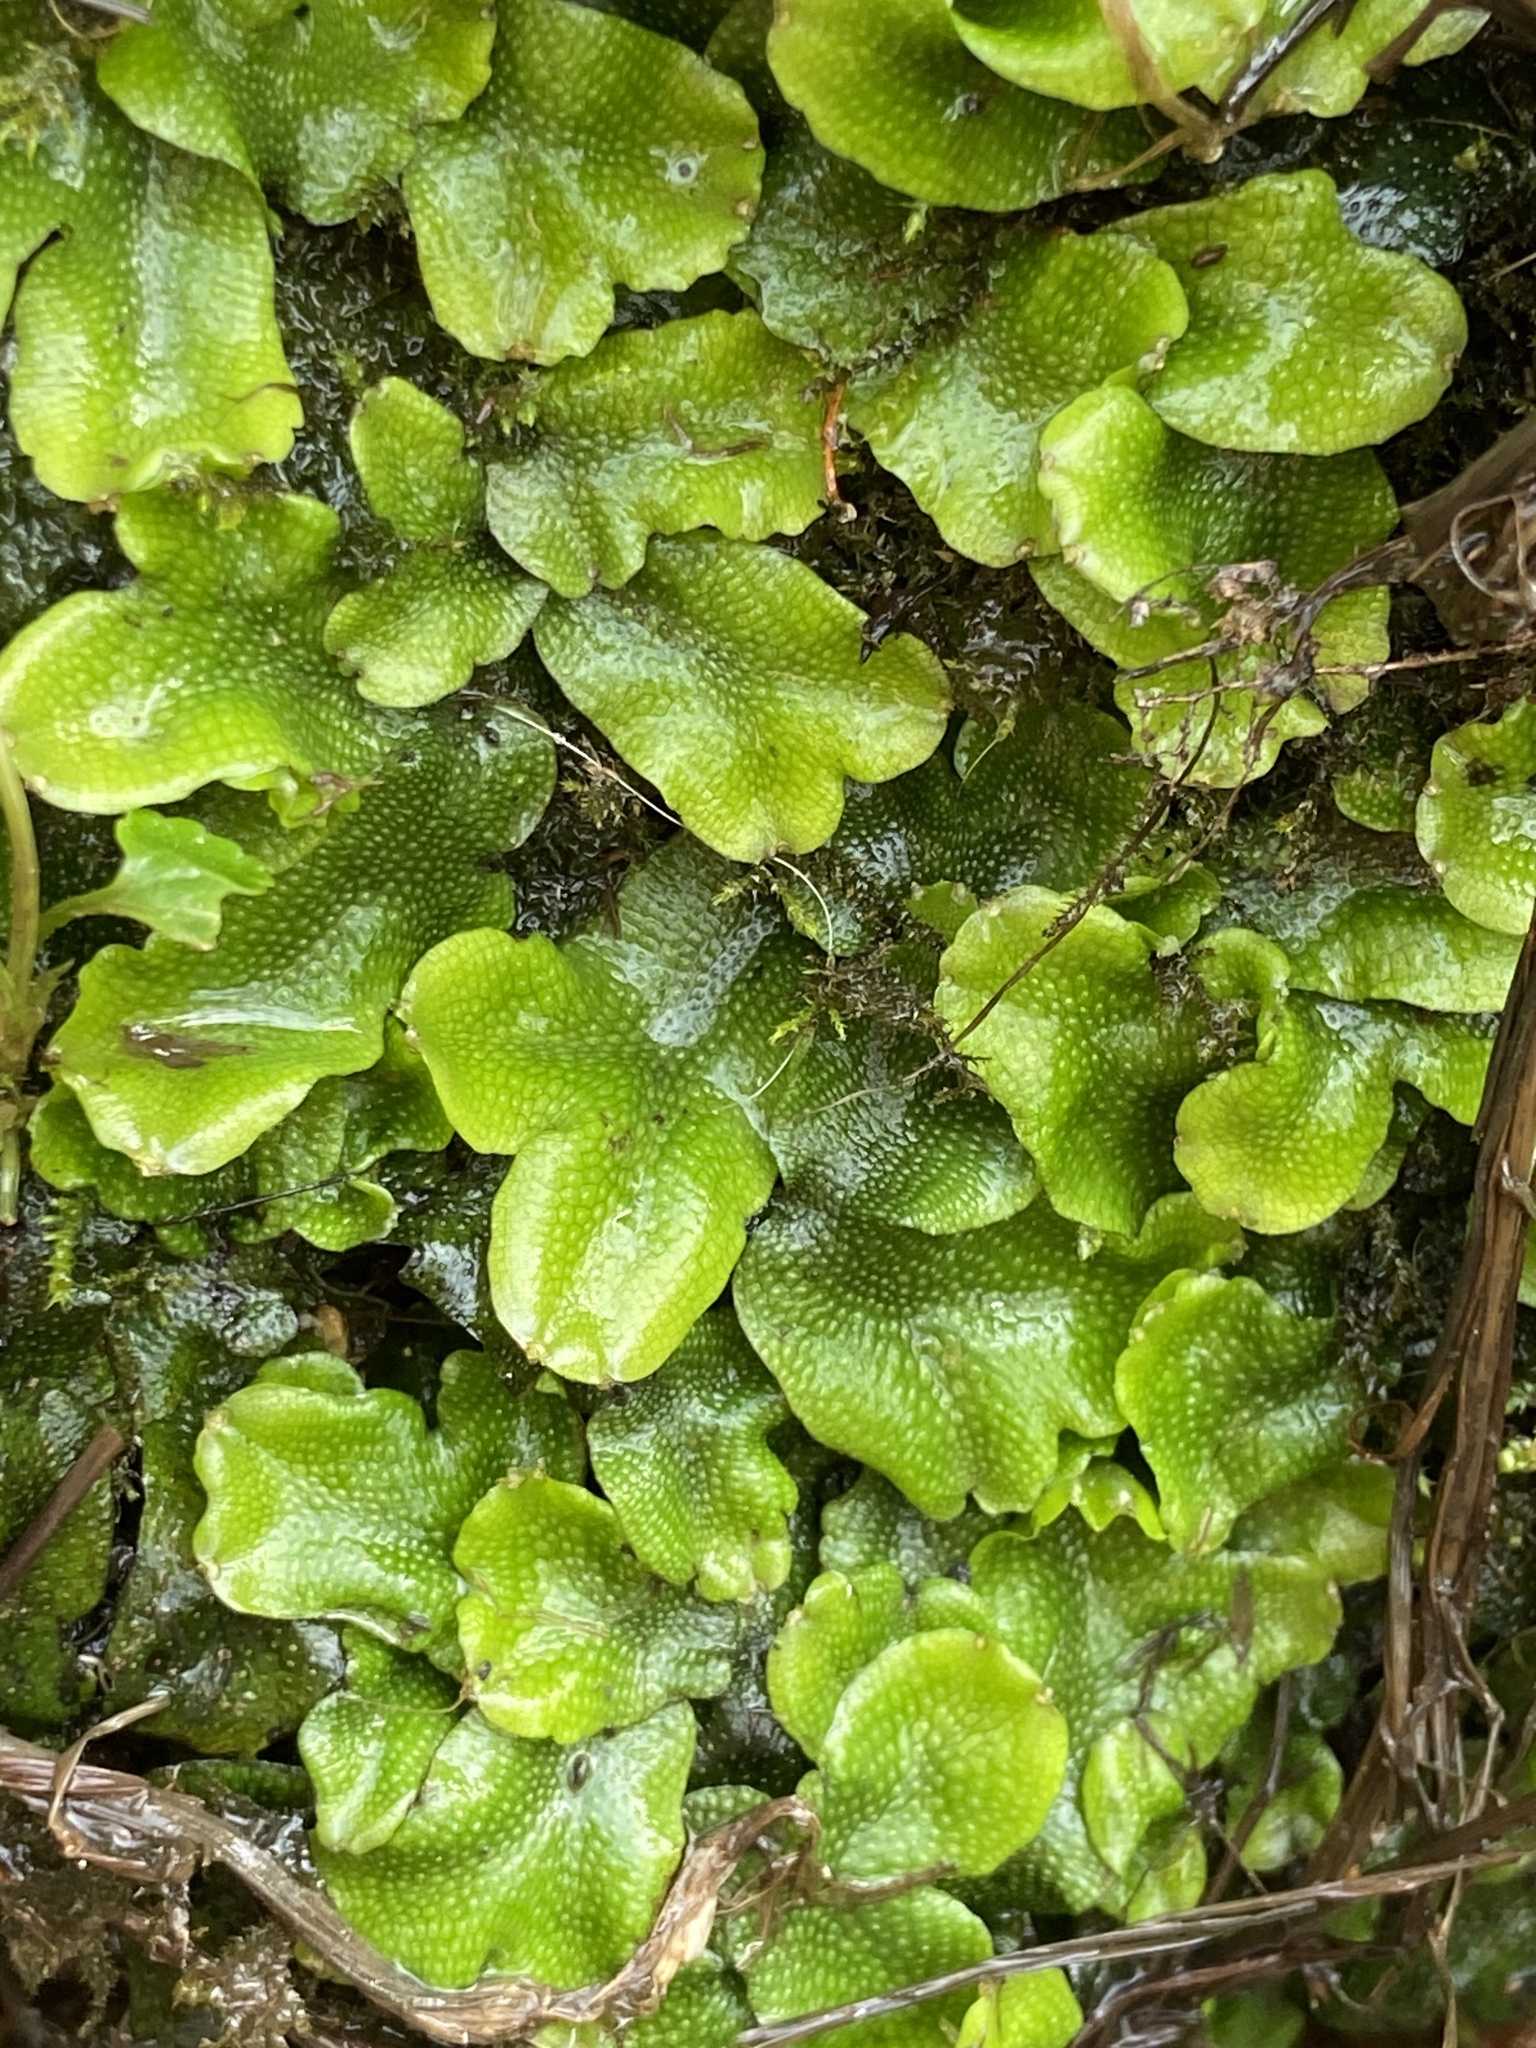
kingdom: Plantae
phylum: Marchantiophyta
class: Marchantiopsida
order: Marchantiales
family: Conocephalaceae
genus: Conocephalum
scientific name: Conocephalum conicum
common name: Great scented liverwort
